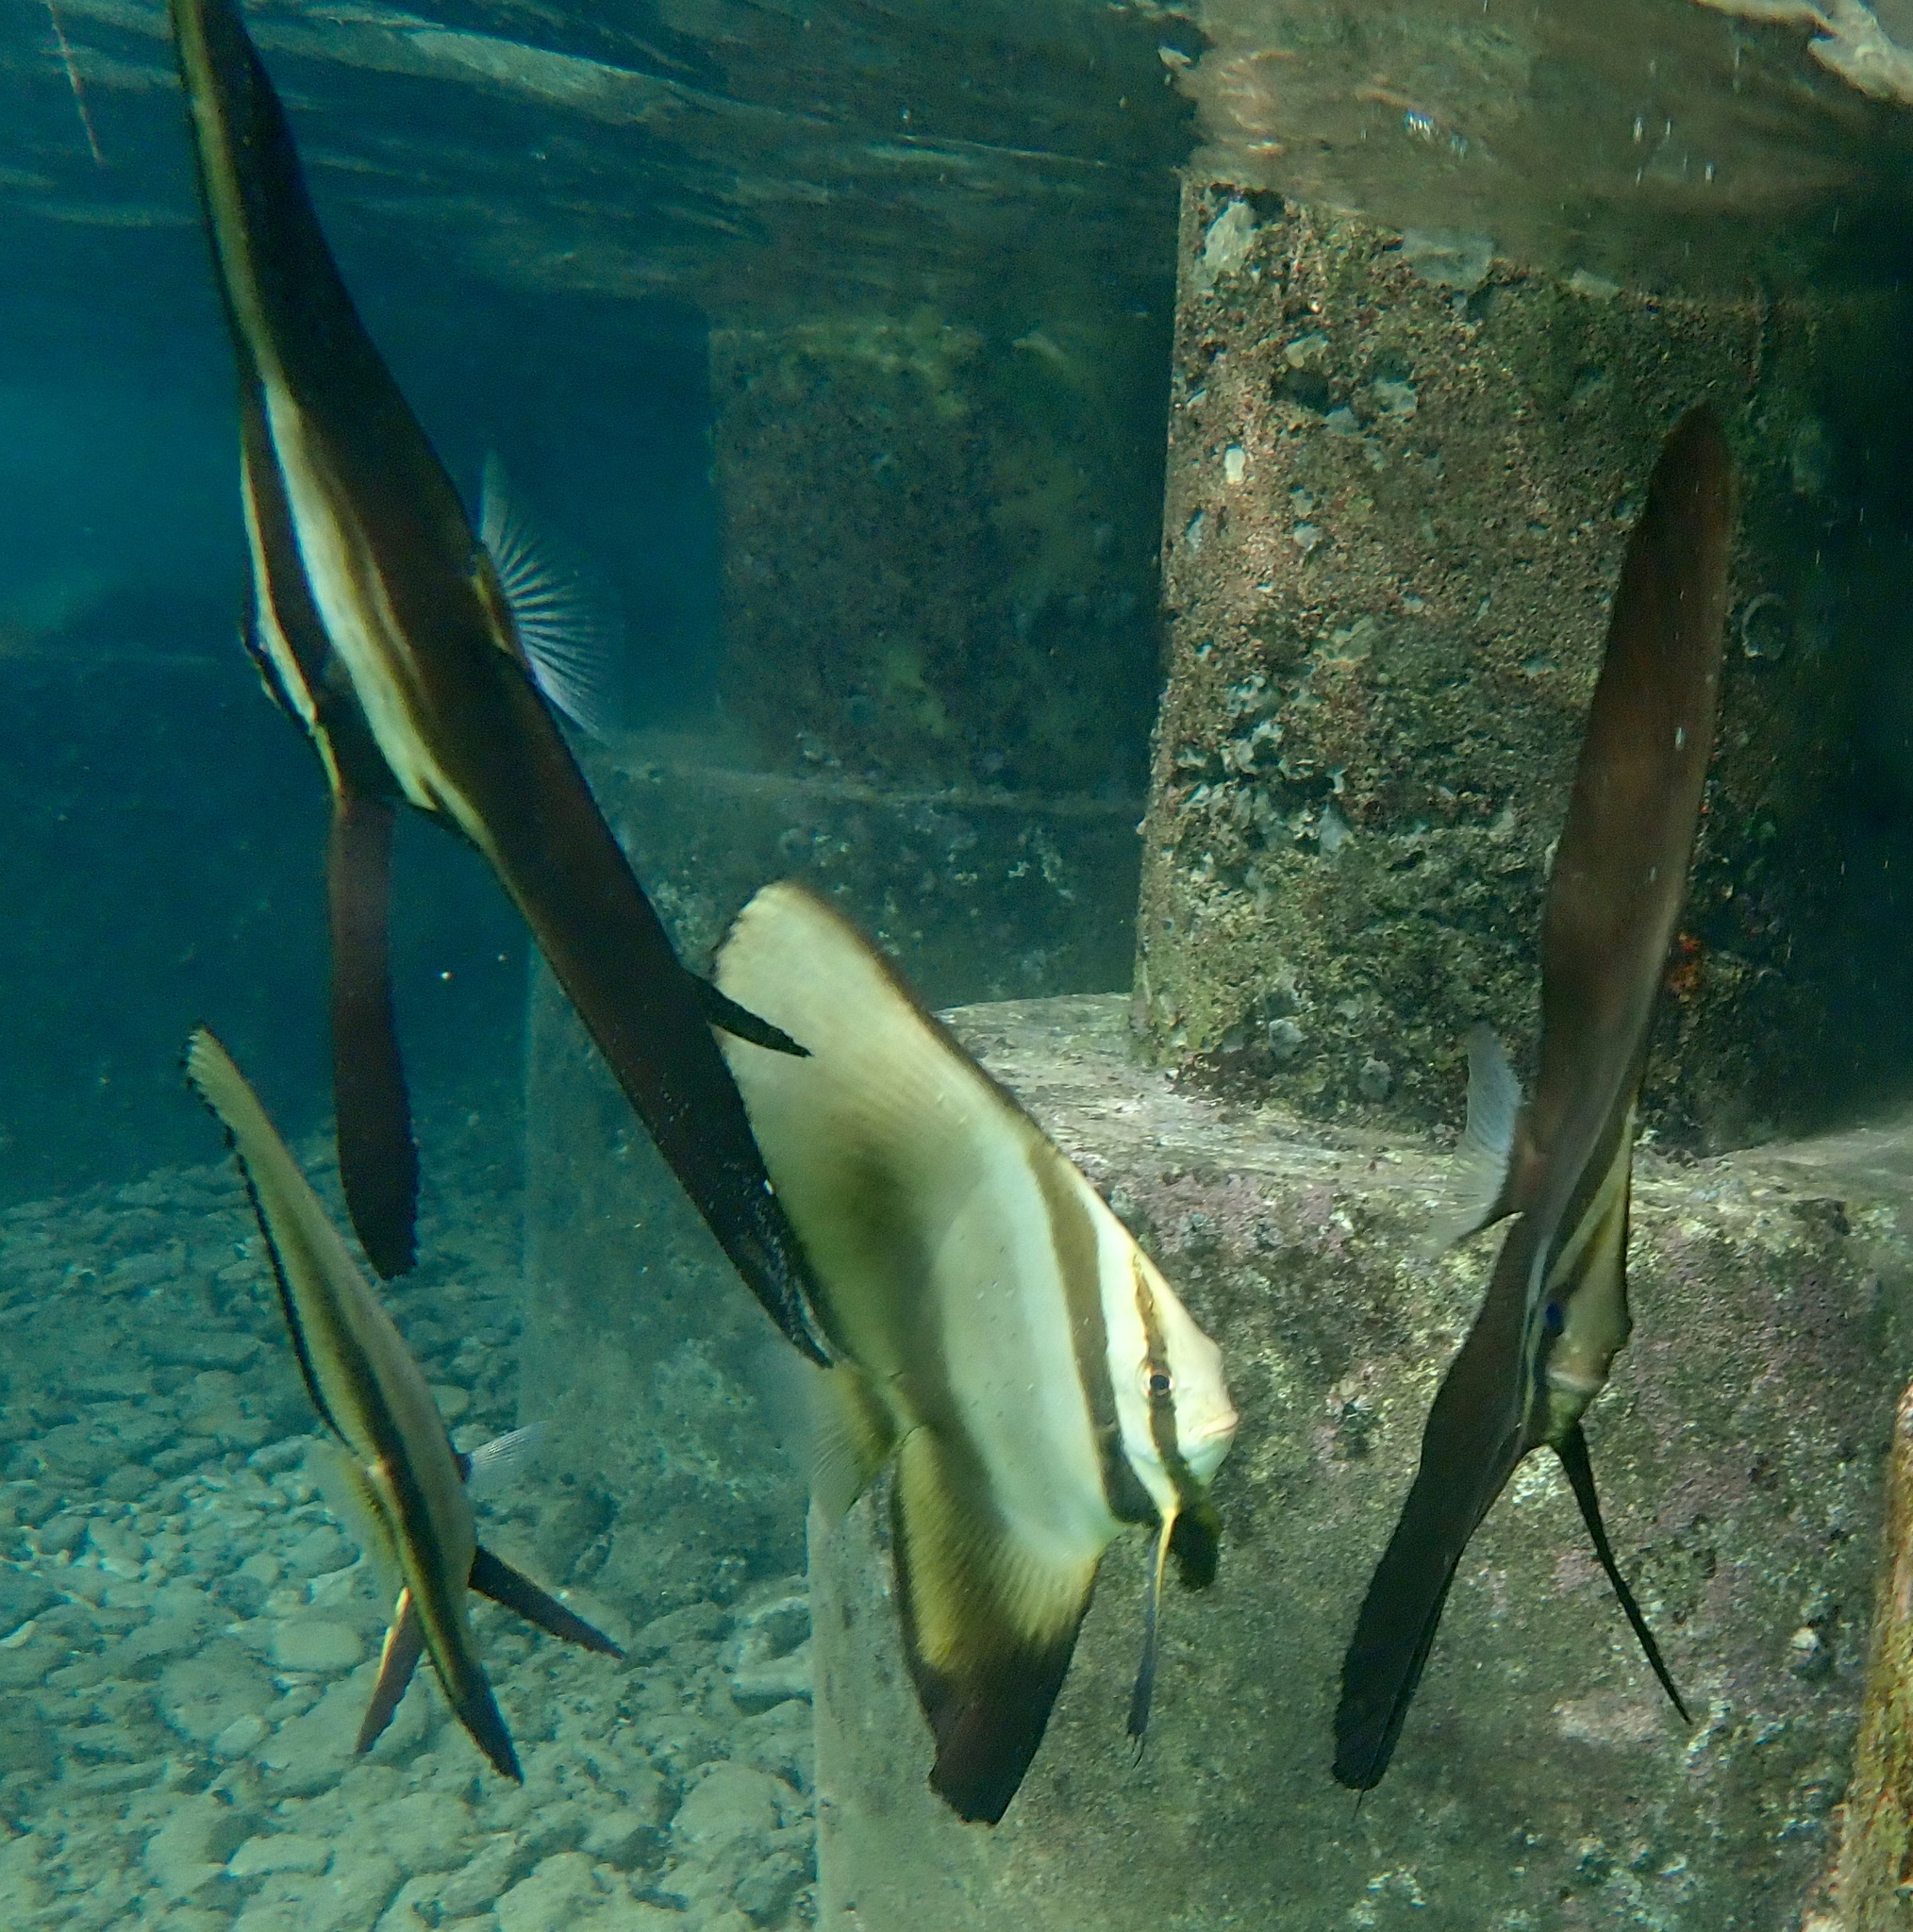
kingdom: Animalia
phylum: Chordata
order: Perciformes
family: Ephippidae
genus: Platax
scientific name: Platax teira
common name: Longfin baitfish
